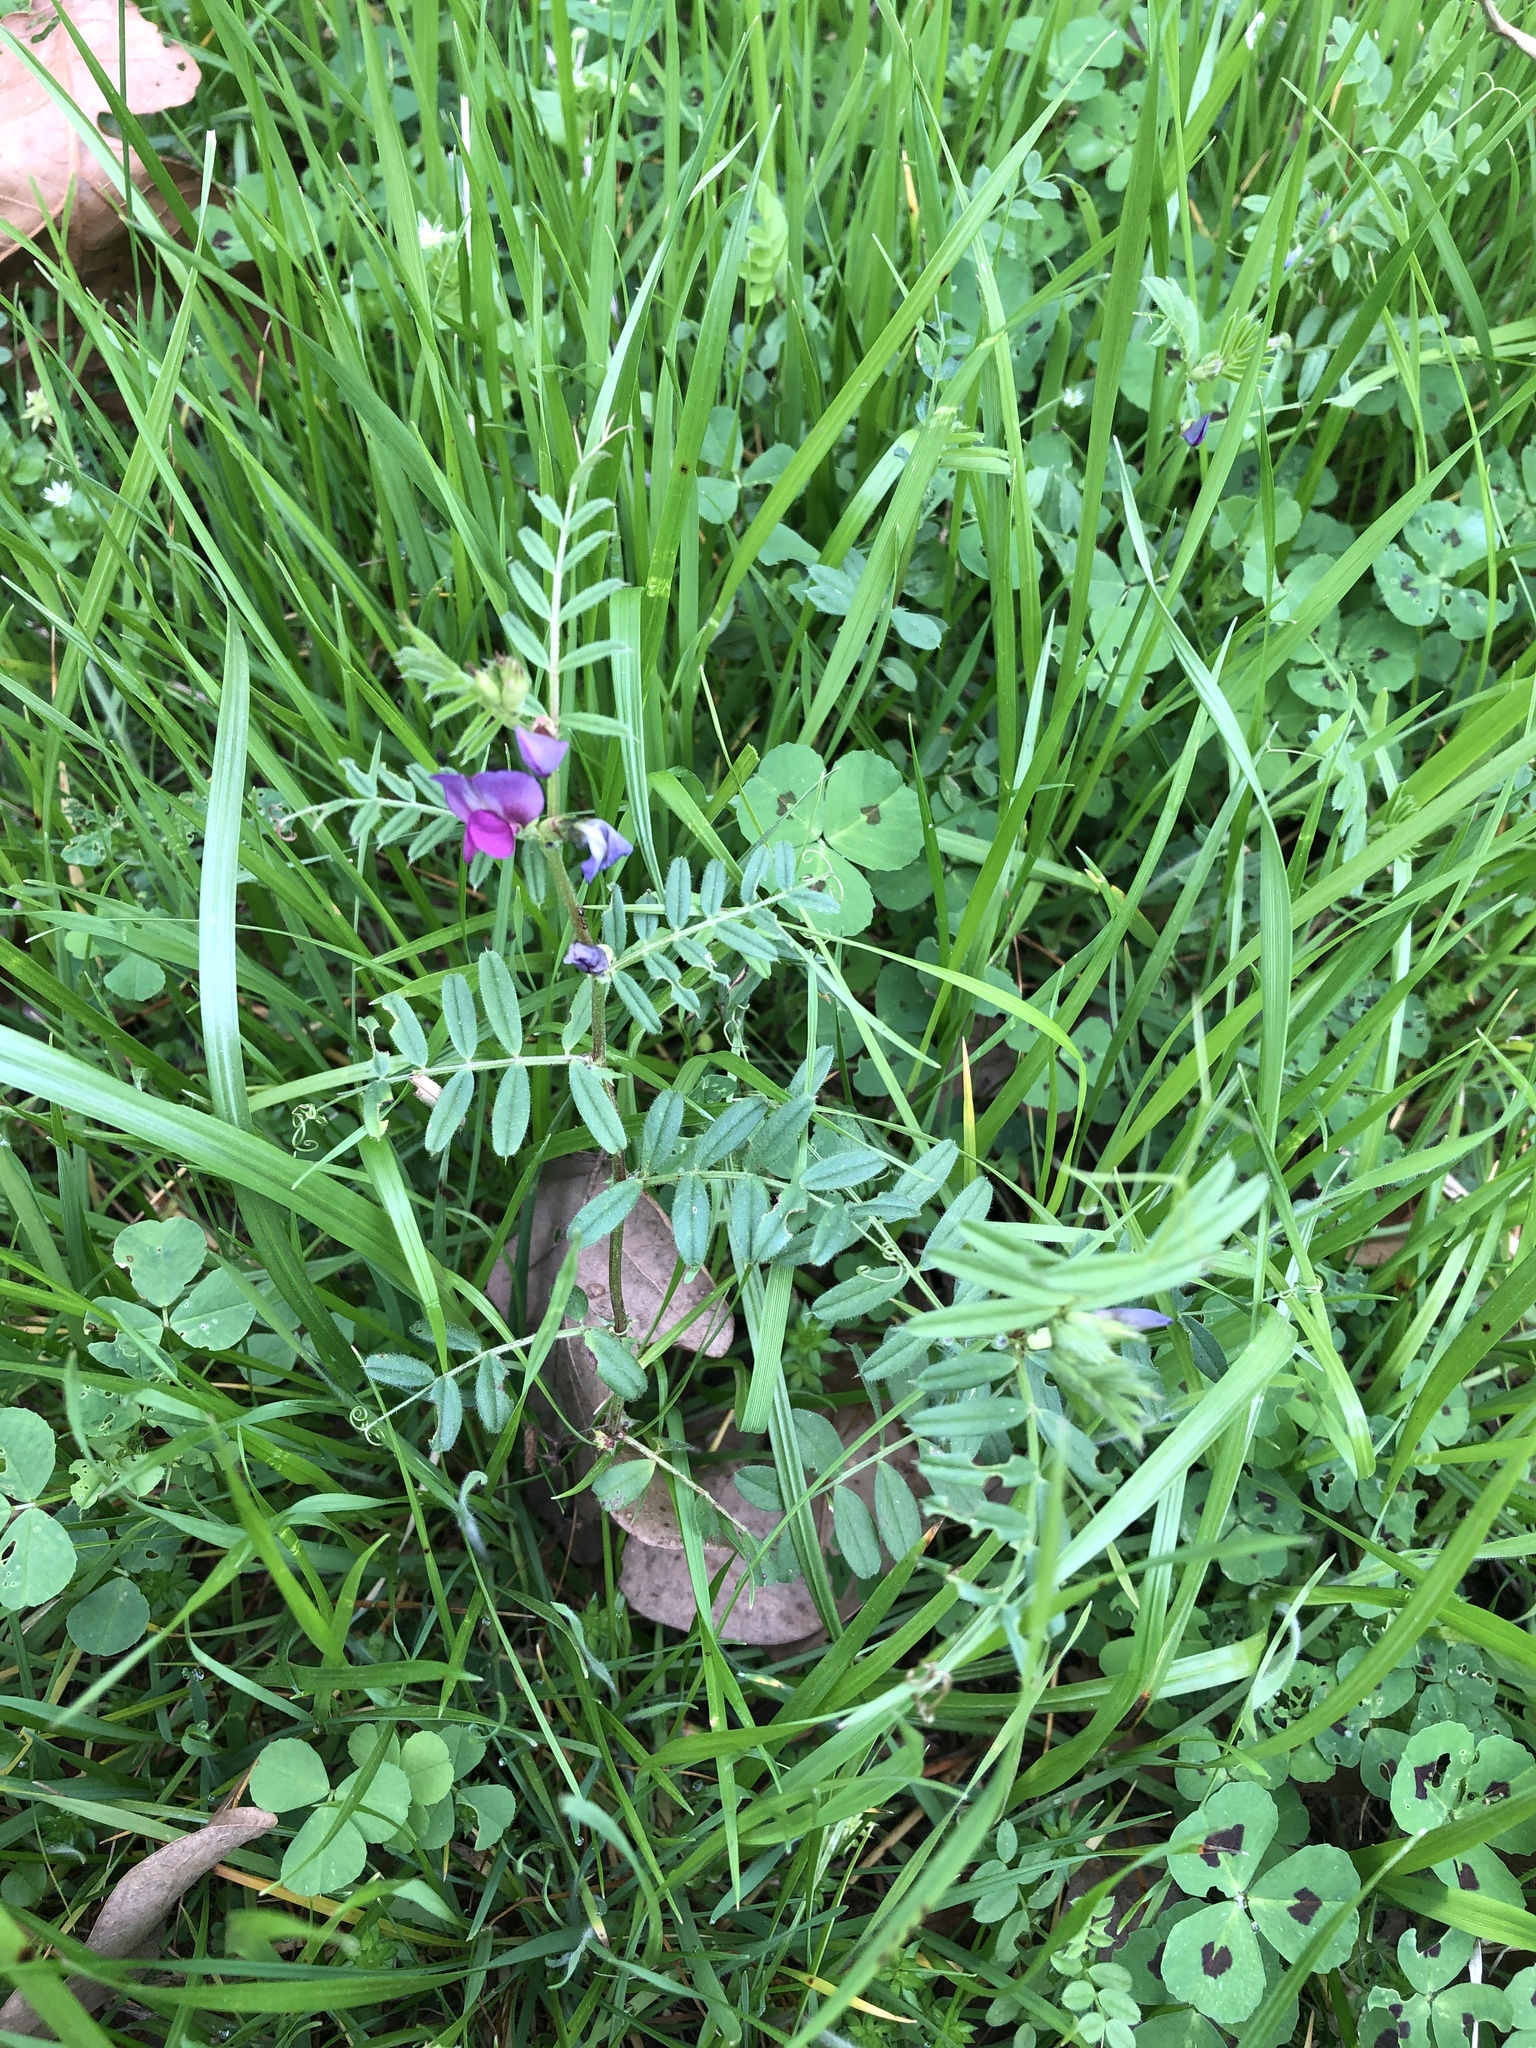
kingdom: Plantae
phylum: Tracheophyta
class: Magnoliopsida
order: Fabales
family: Fabaceae
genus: Vicia
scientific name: Vicia sativa
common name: Garden vetch
